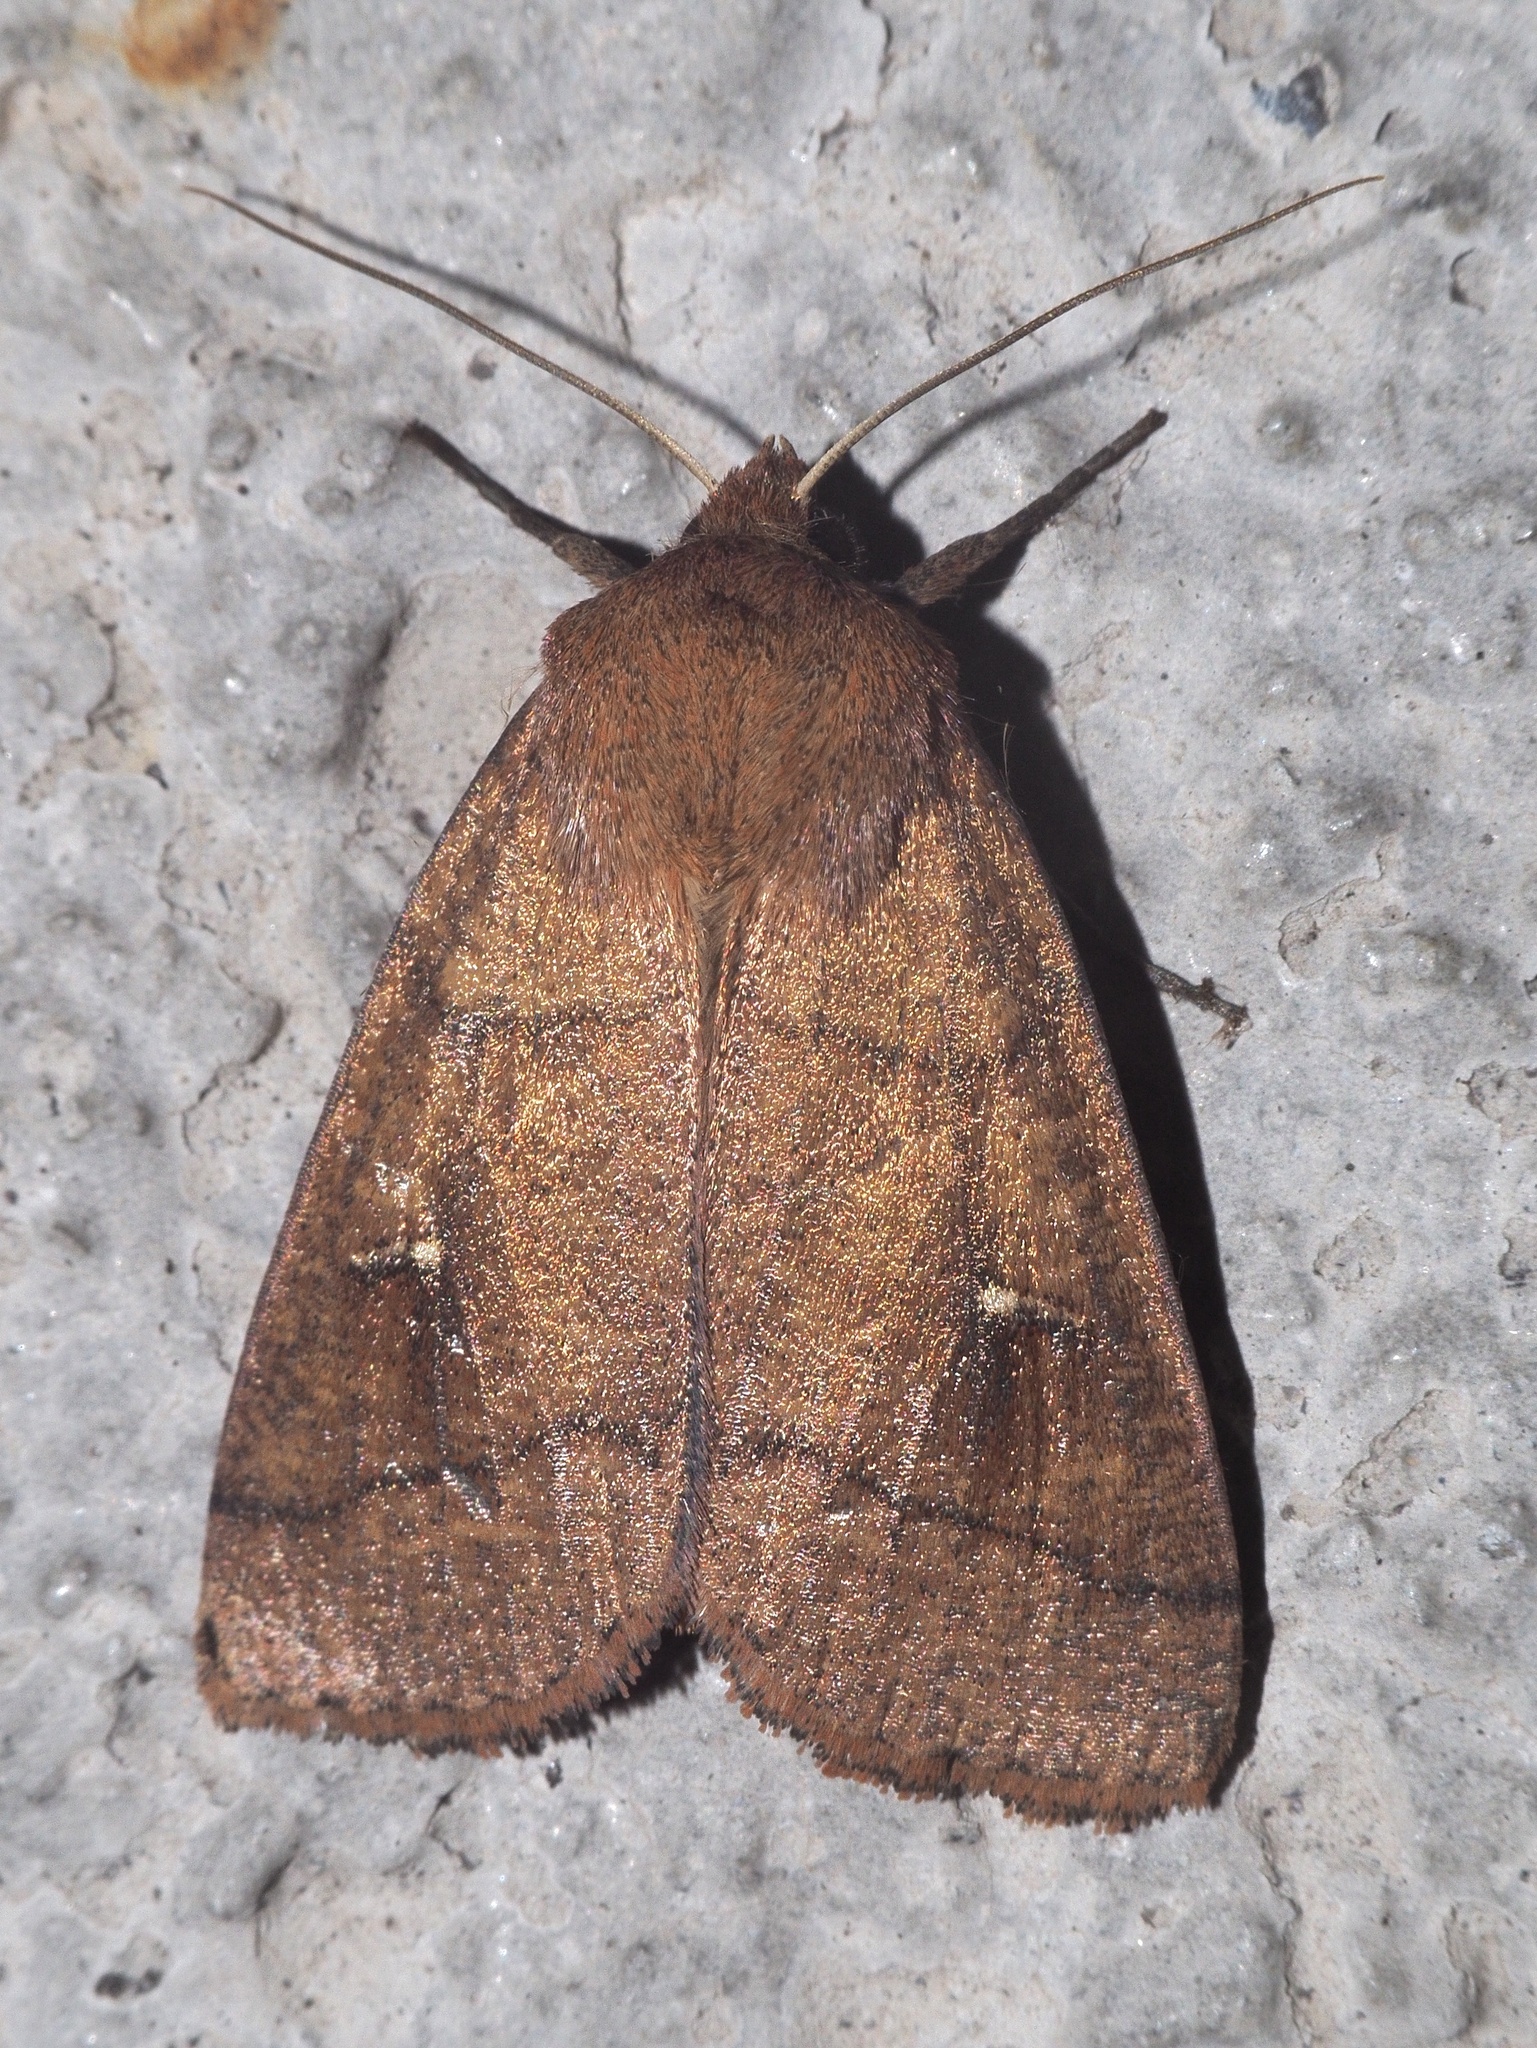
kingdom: Animalia
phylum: Arthropoda
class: Insecta
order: Lepidoptera
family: Noctuidae
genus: Mythimna
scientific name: Mythimna turca
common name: Double line
